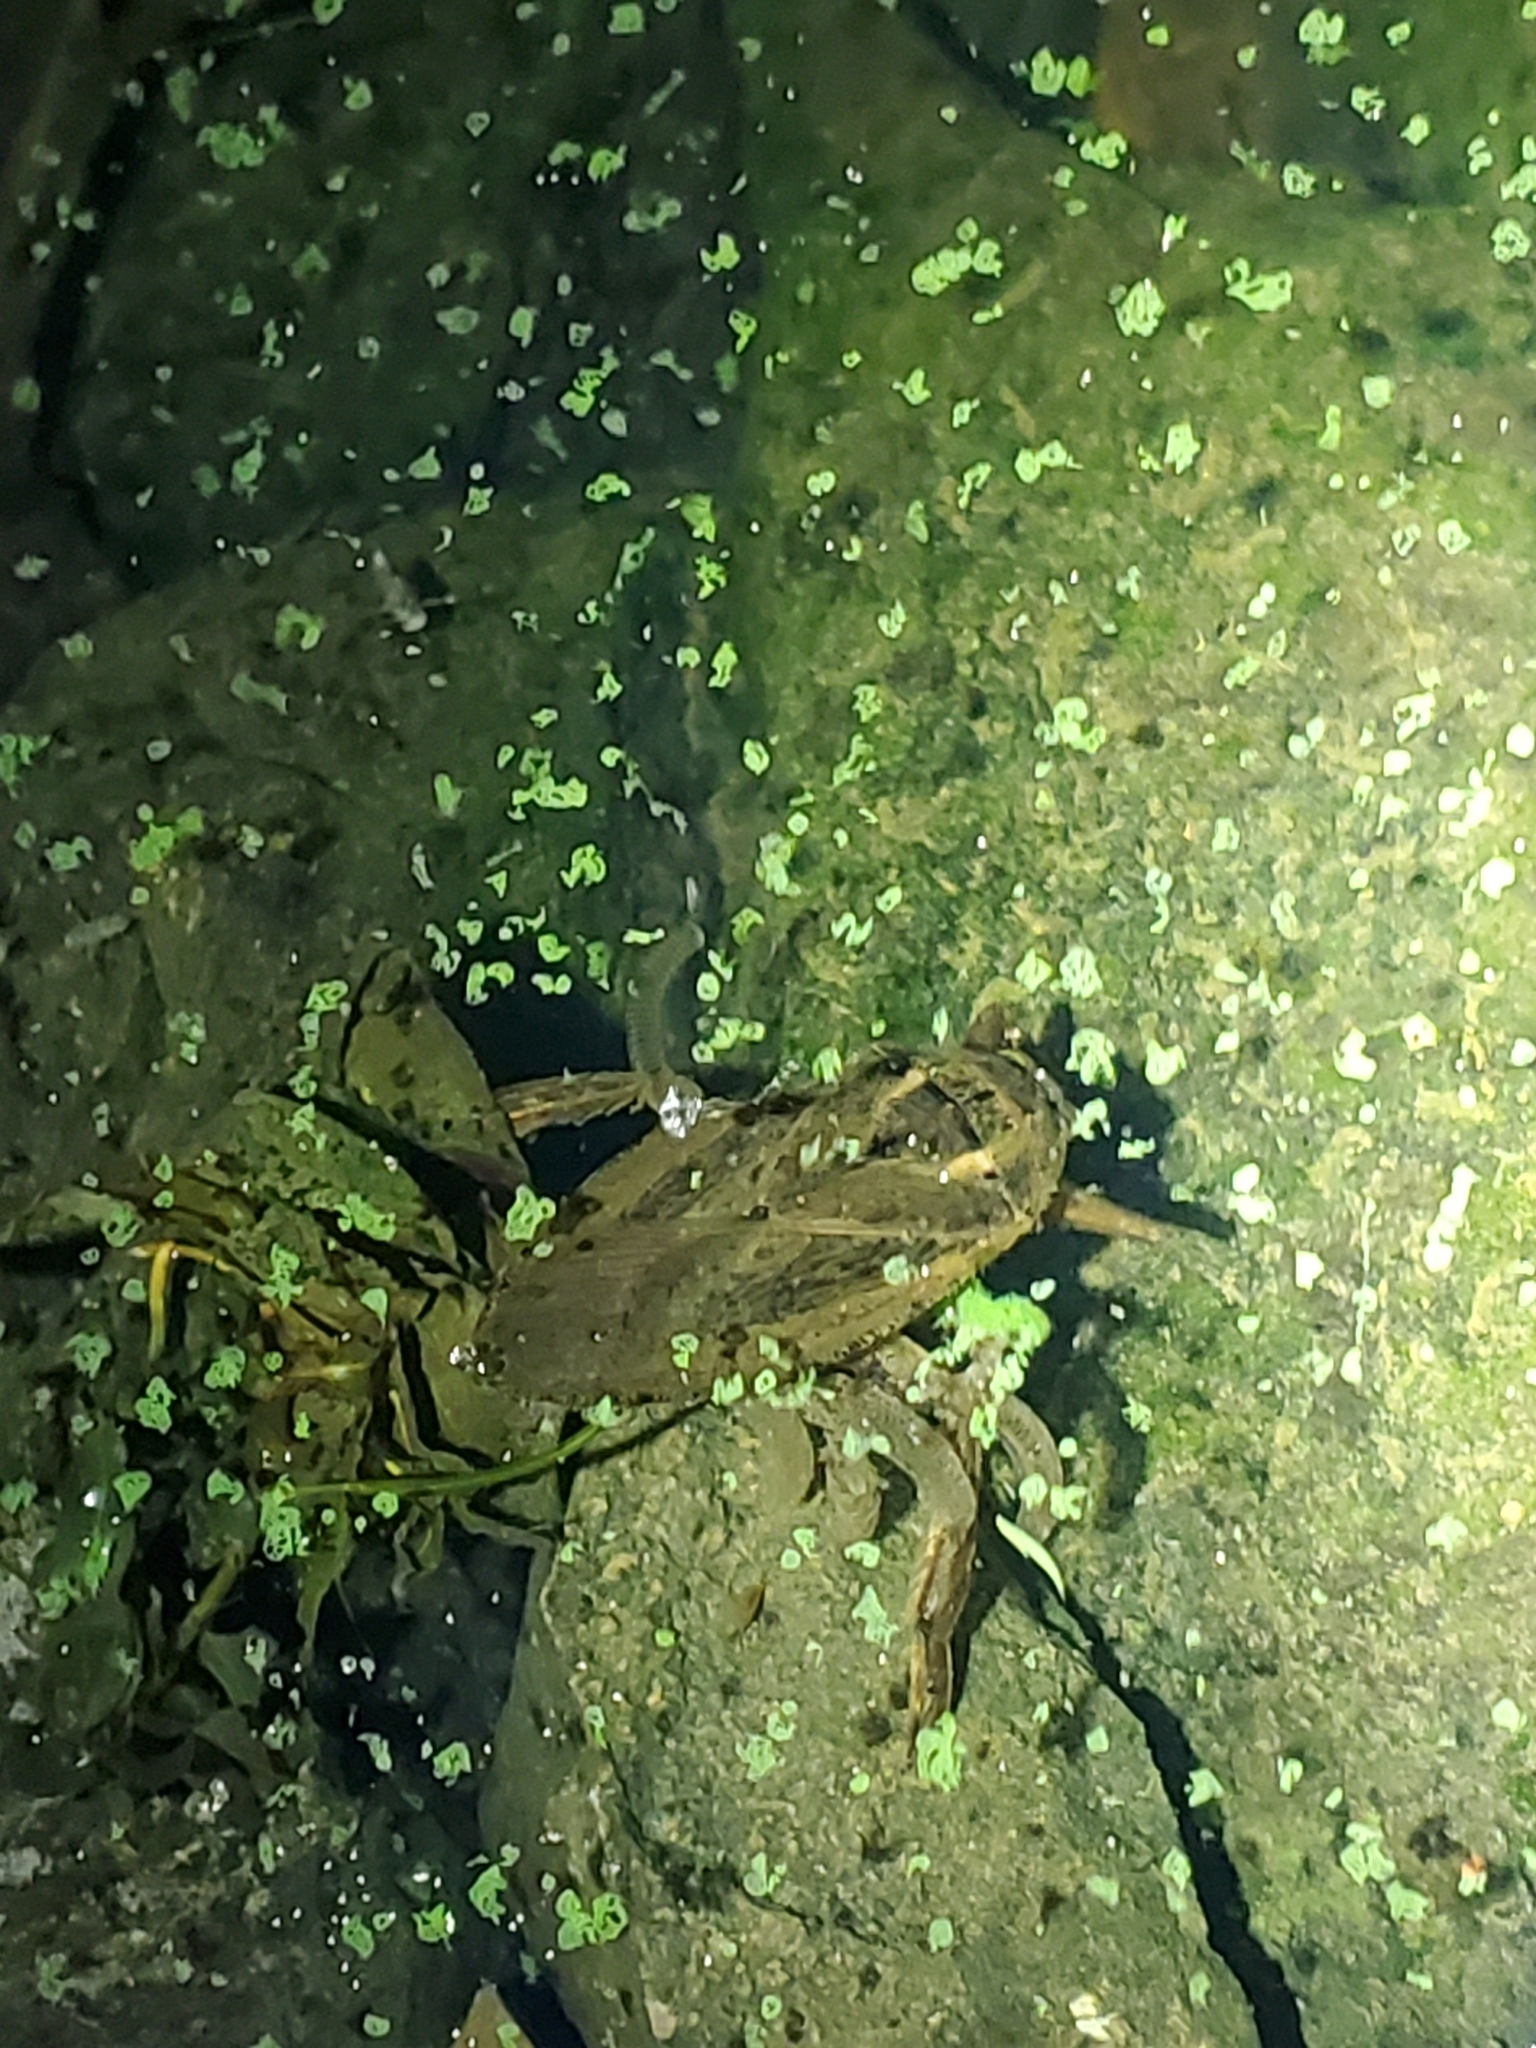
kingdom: Animalia
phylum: Arthropoda
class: Insecta
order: Hemiptera
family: Belostomatidae
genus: Lethocerus
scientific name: Lethocerus americanus
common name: Giant water bug
